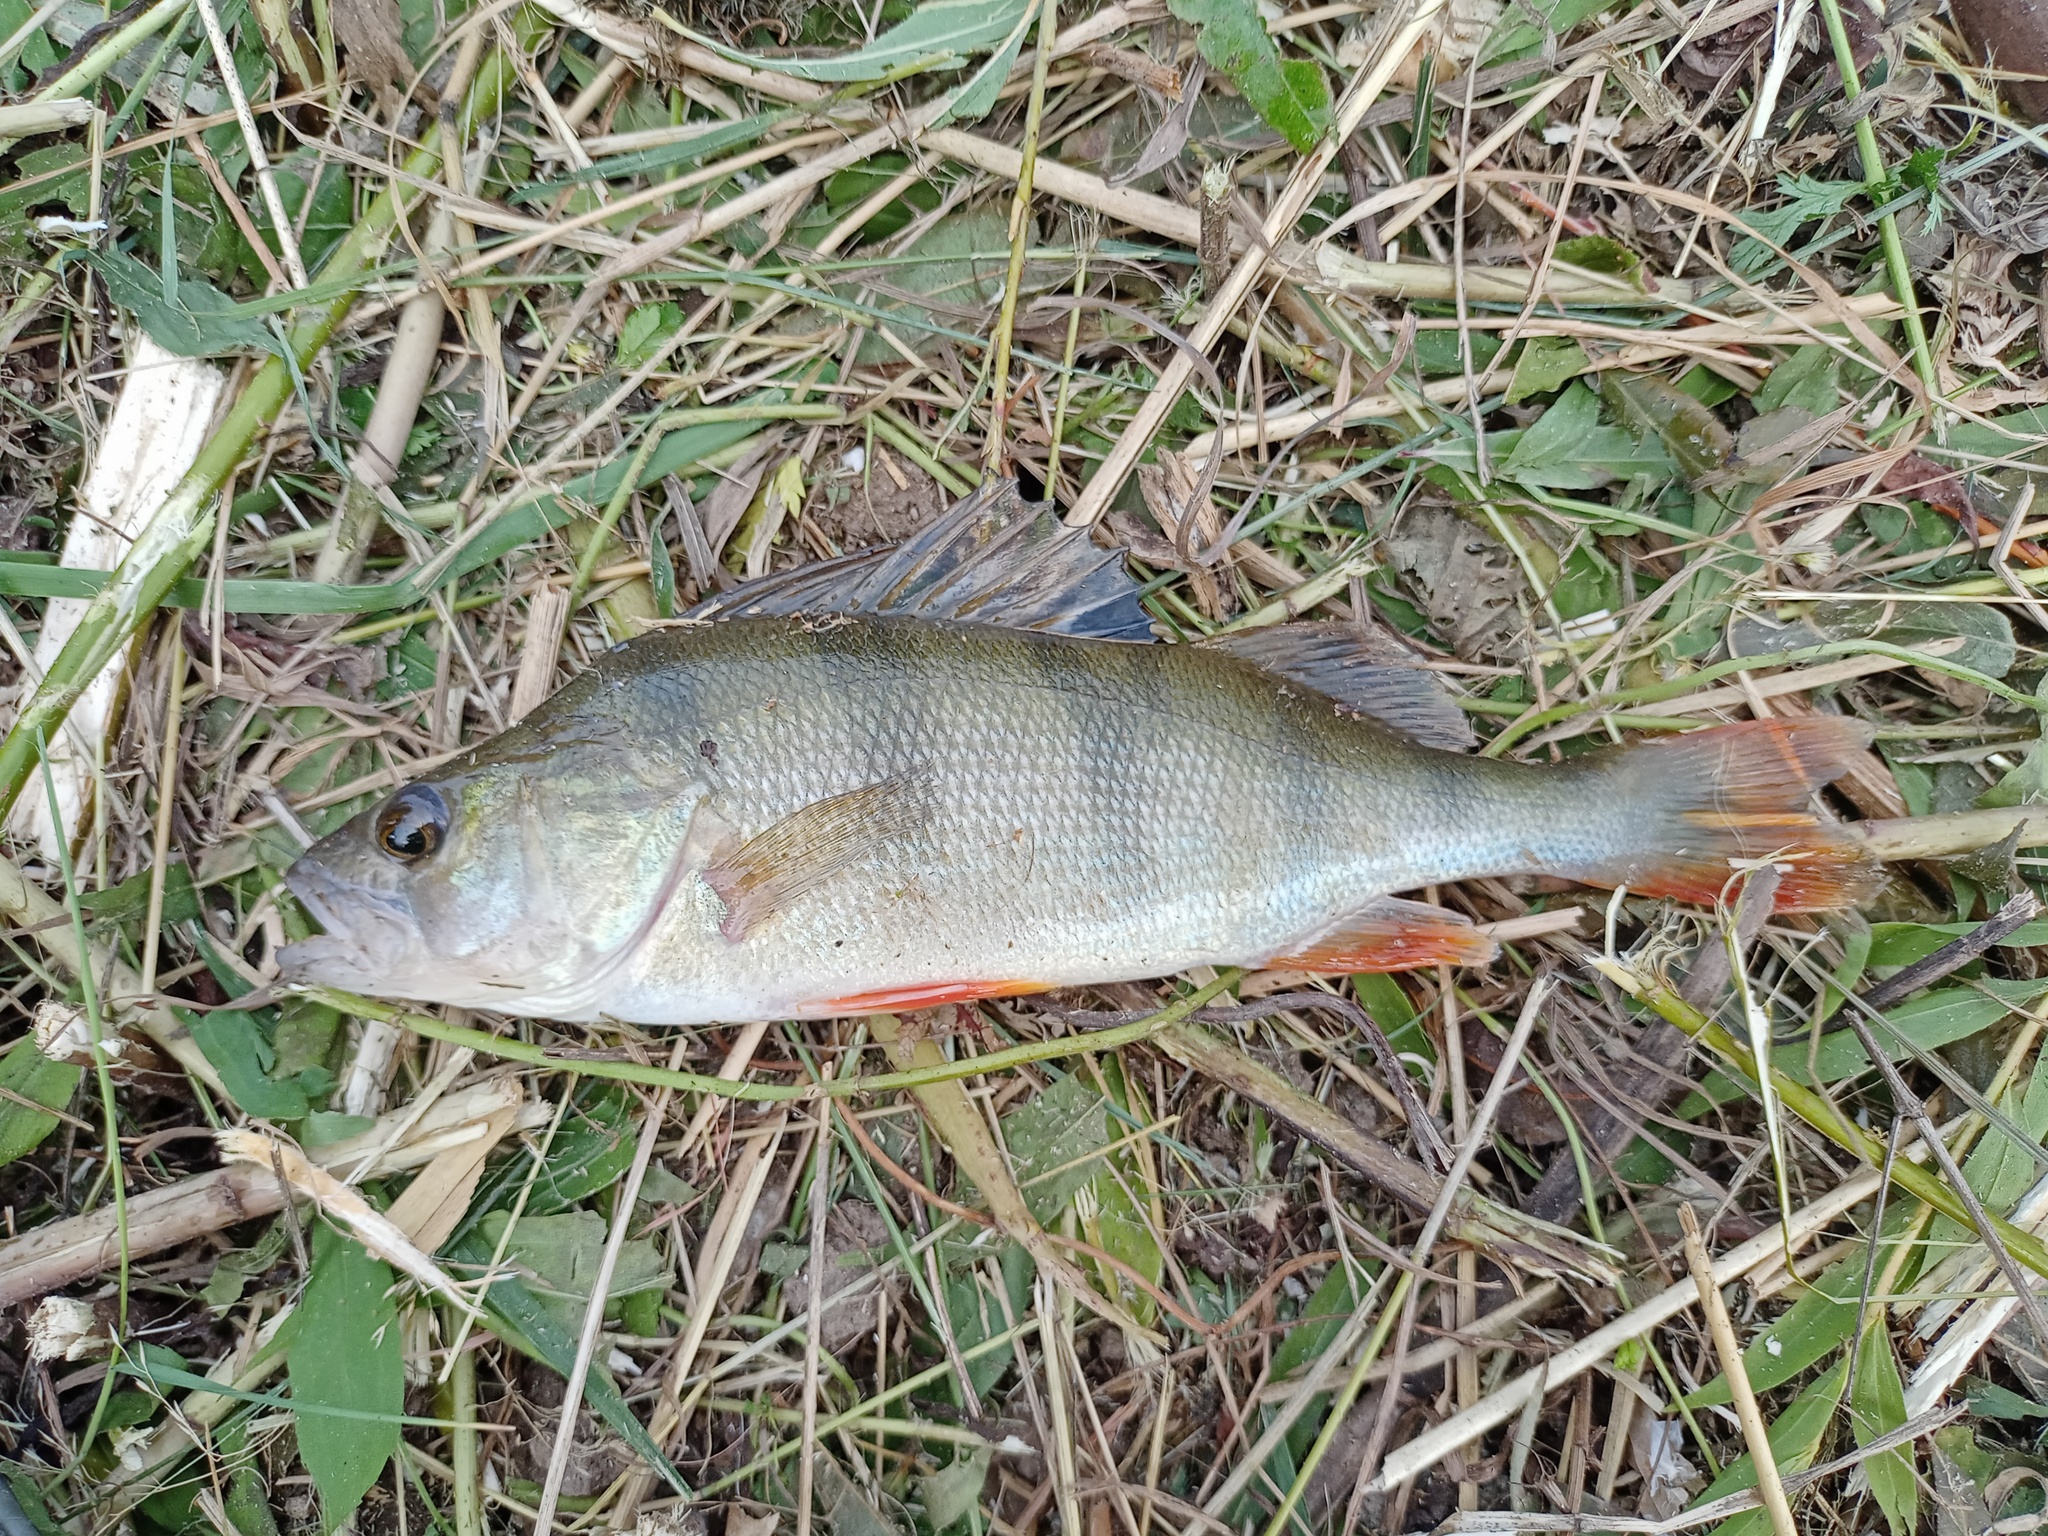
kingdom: Animalia
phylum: Chordata
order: Perciformes
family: Percidae
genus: Perca
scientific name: Perca fluviatilis
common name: Perch
